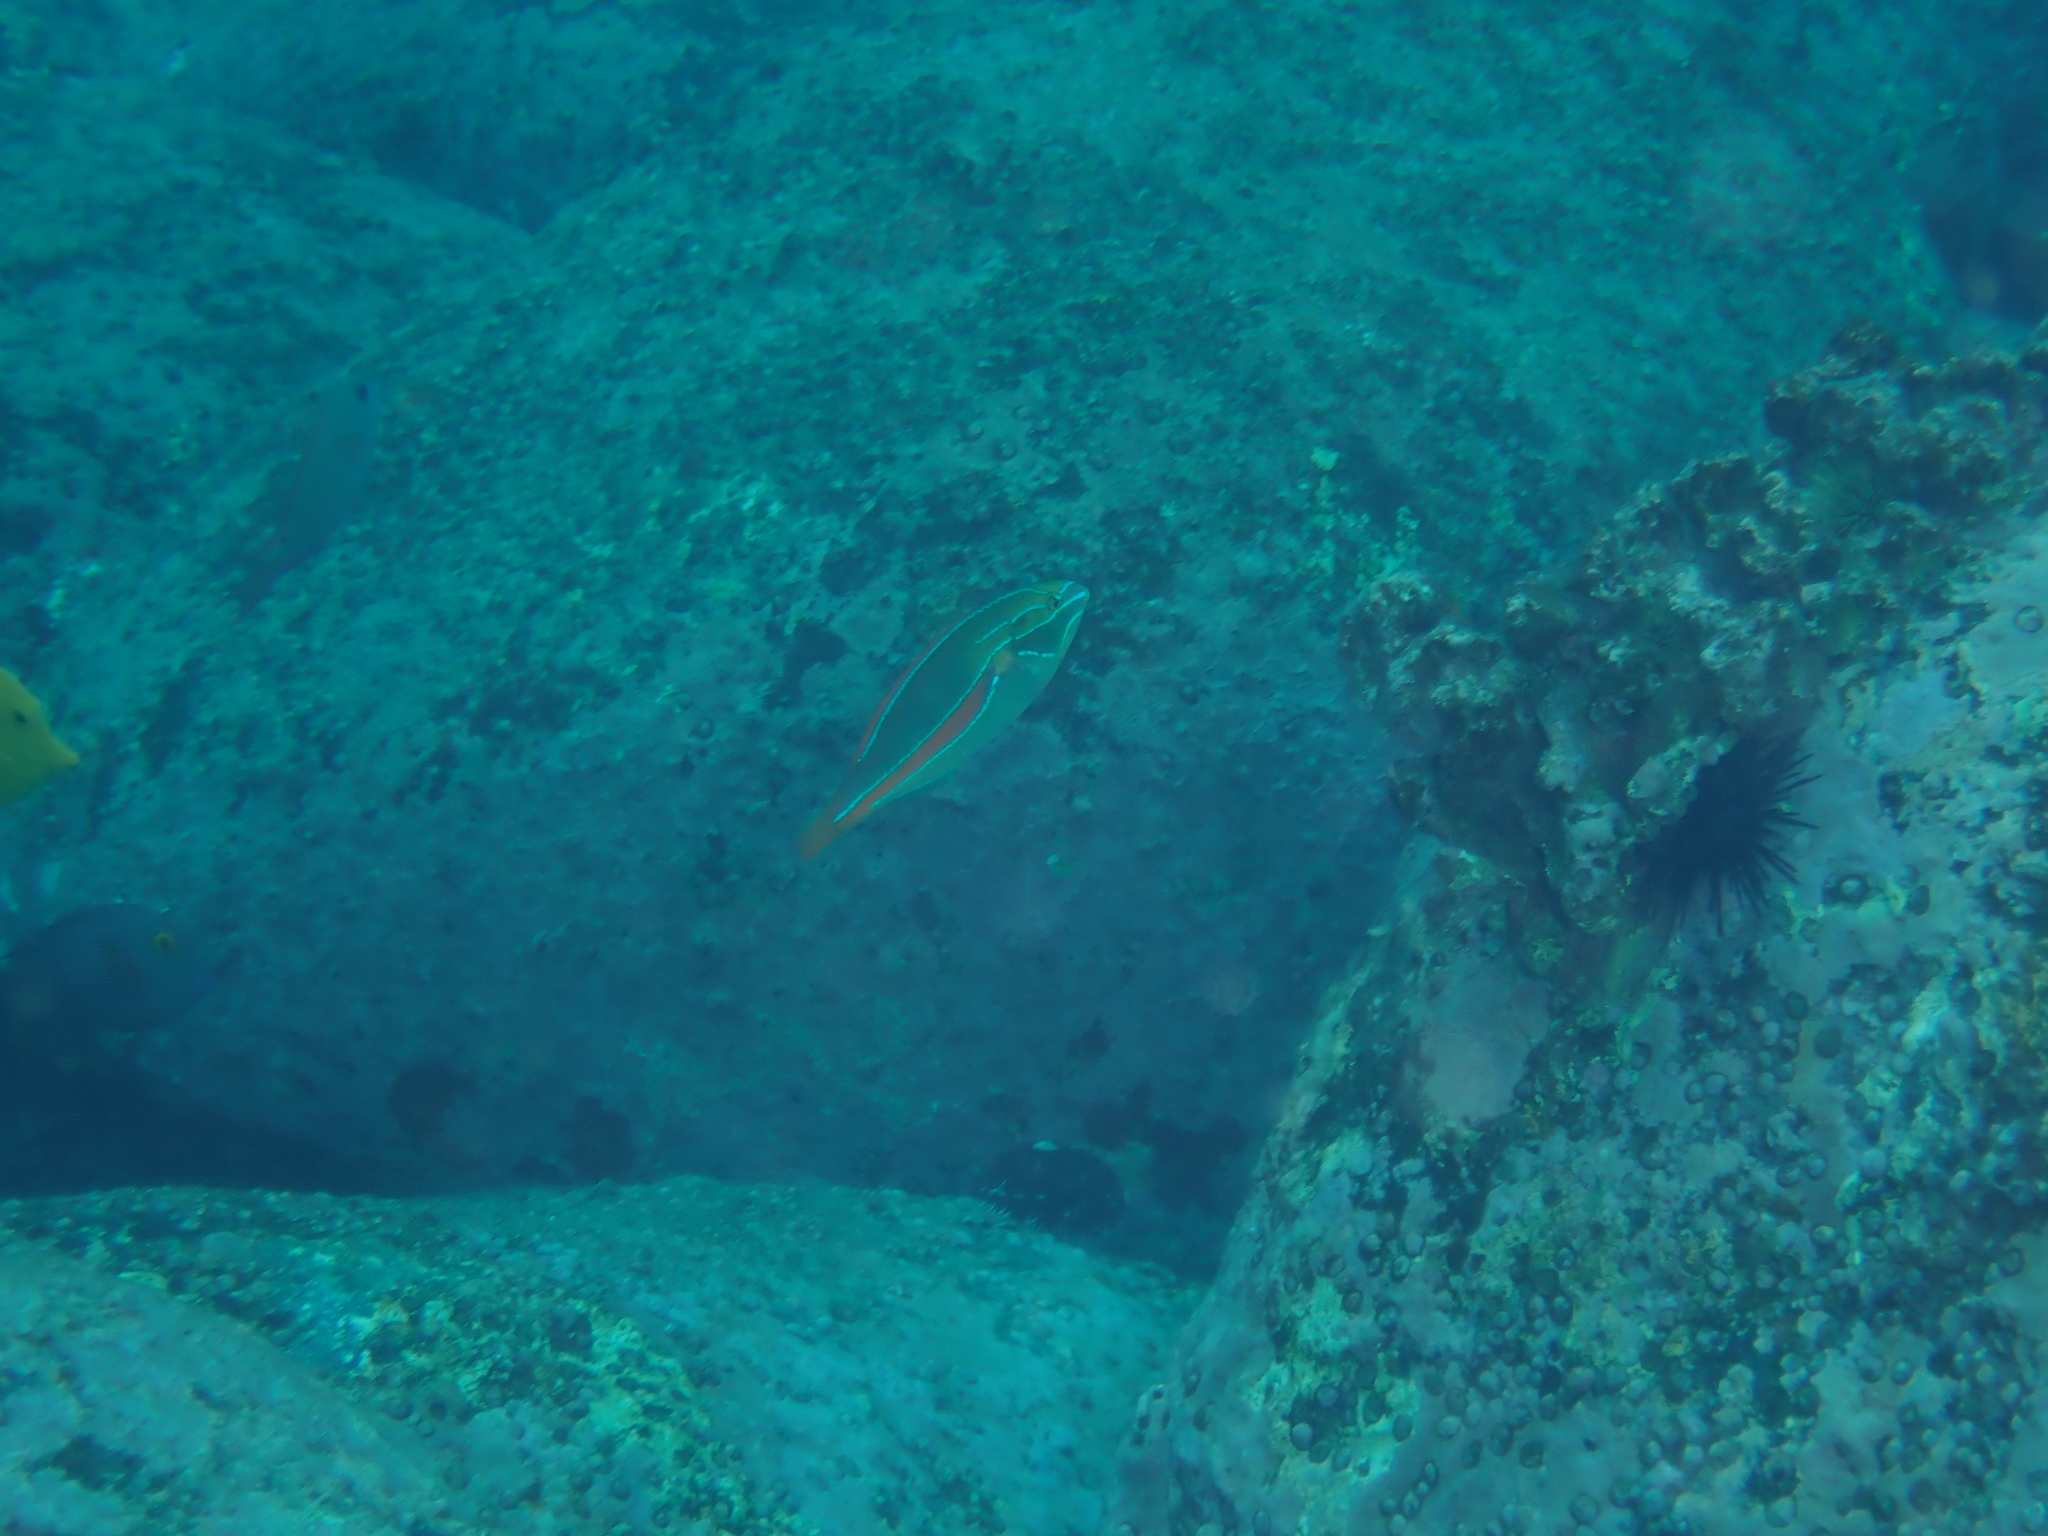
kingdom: Animalia
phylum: Chordata
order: Perciformes
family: Labridae
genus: Stethojulis
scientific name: Stethojulis balteata
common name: Belted wrasse
